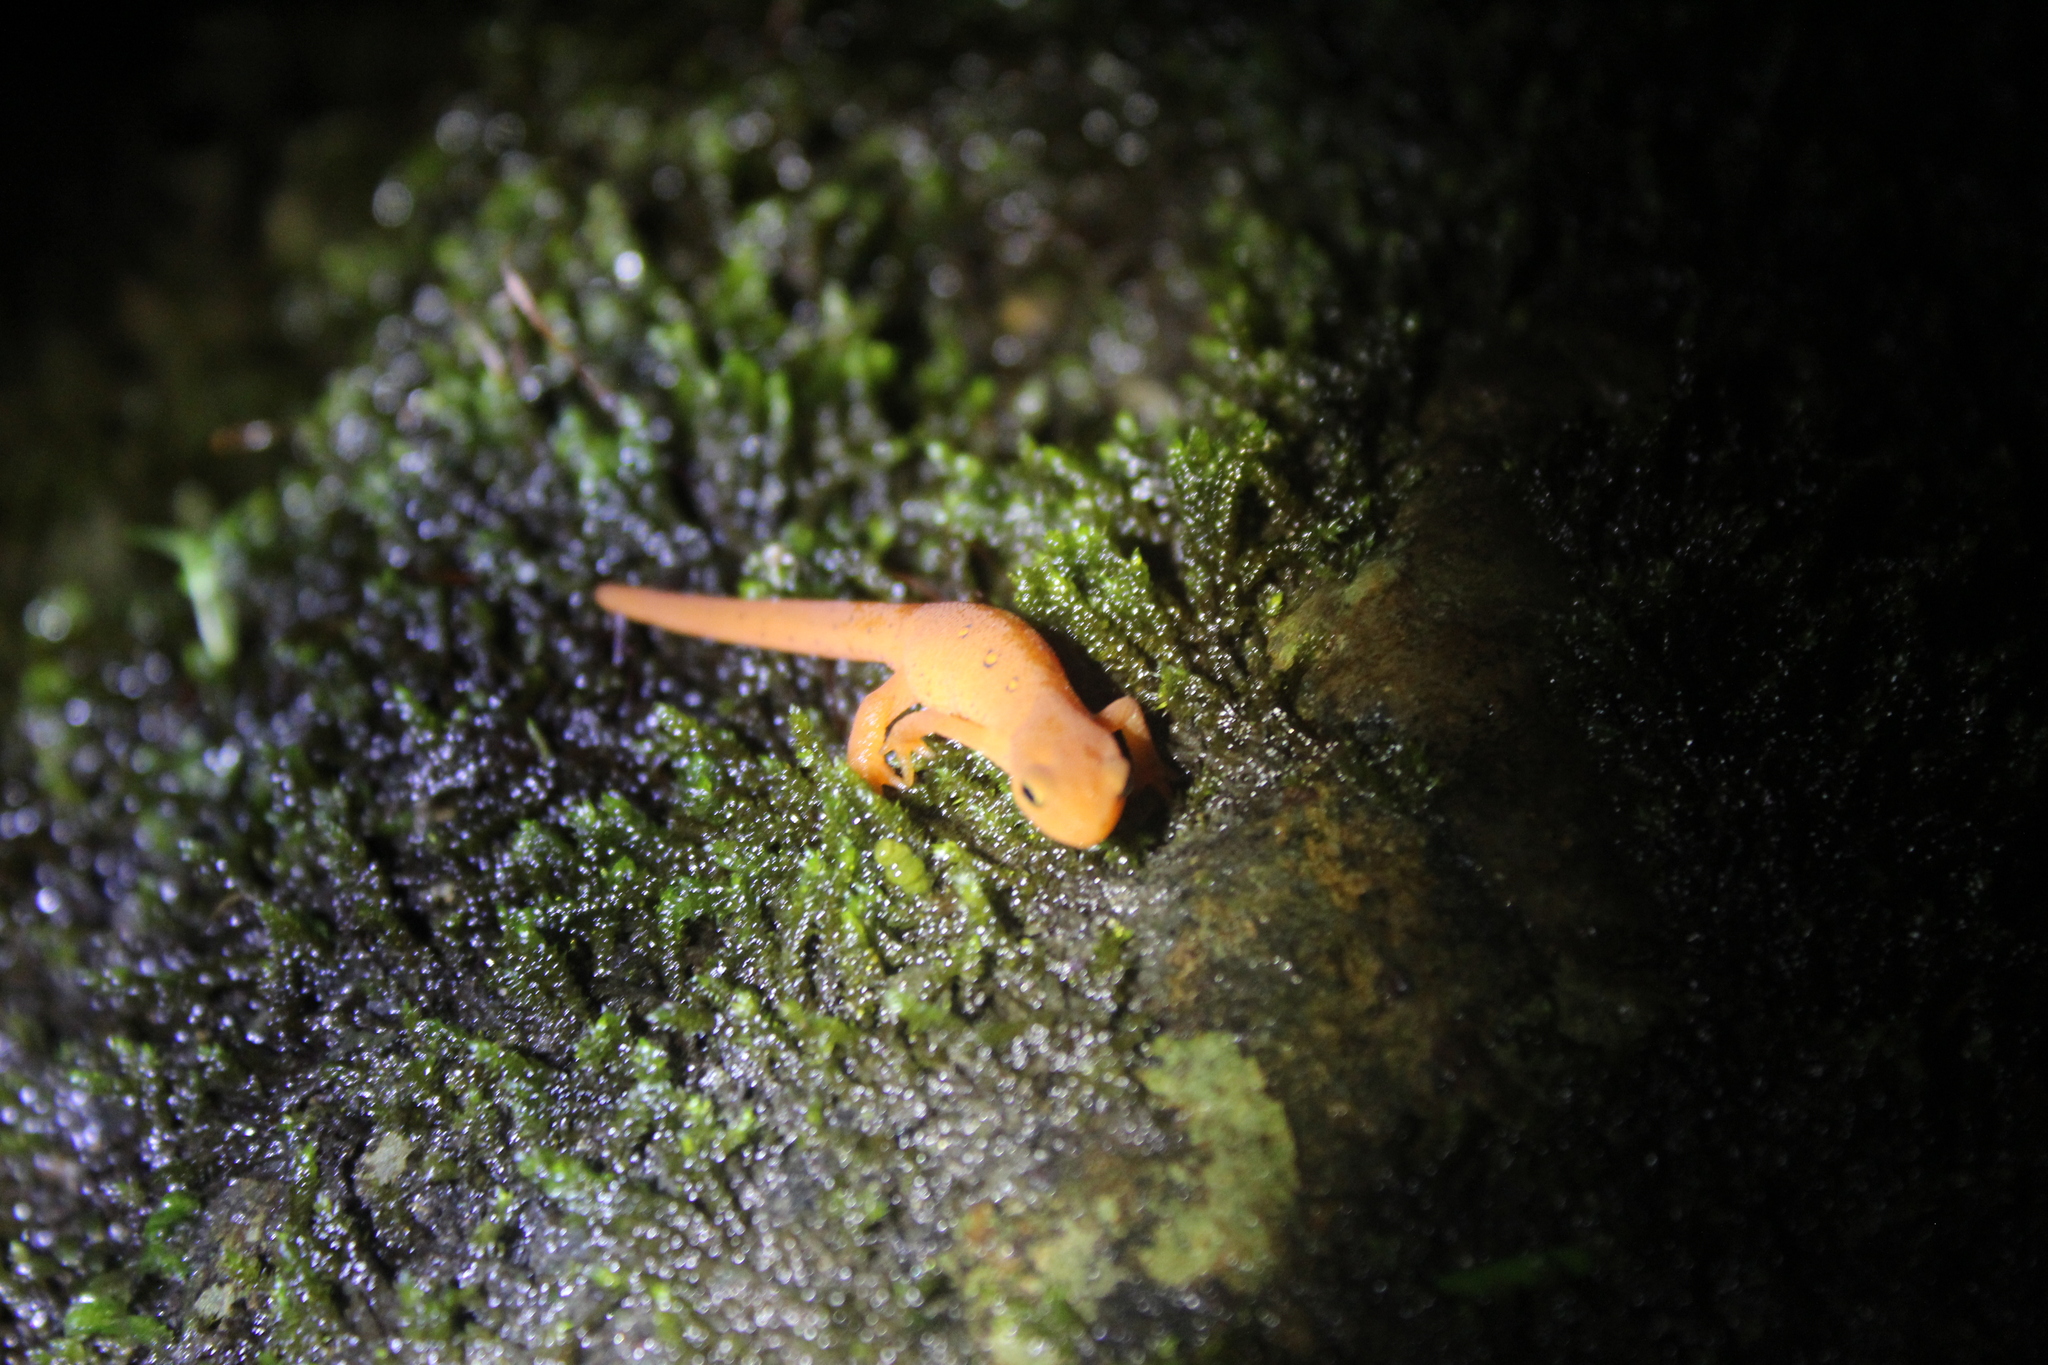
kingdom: Animalia
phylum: Chordata
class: Amphibia
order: Caudata
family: Salamandridae
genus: Notophthalmus
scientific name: Notophthalmus viridescens
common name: Eastern newt
